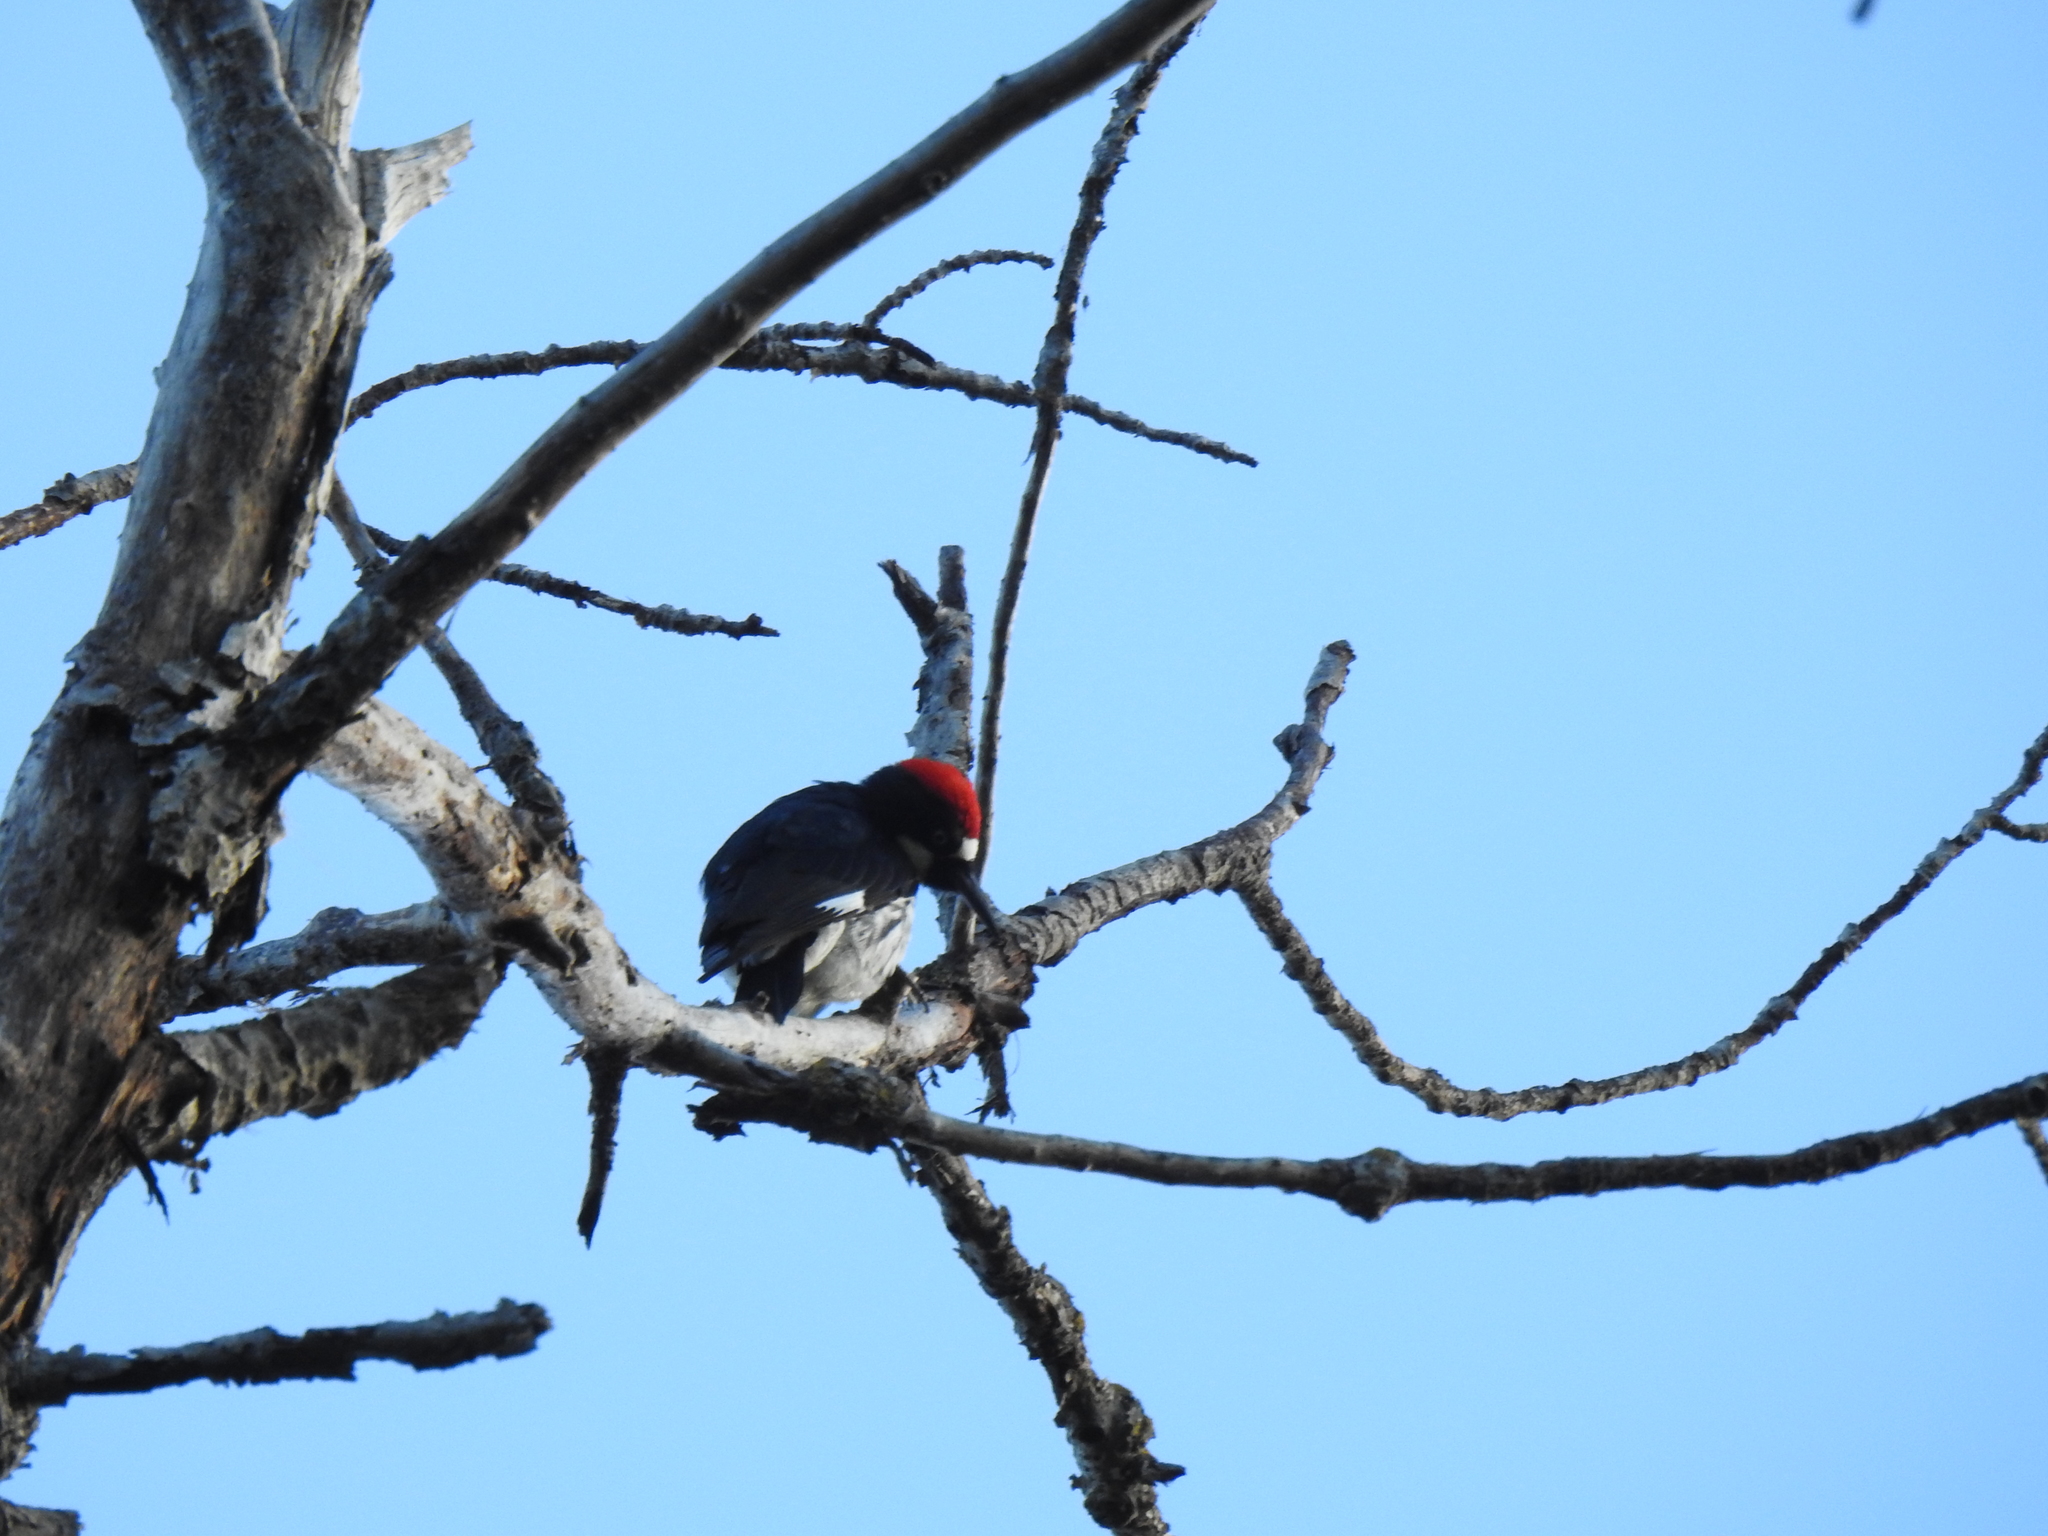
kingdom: Animalia
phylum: Chordata
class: Aves
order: Piciformes
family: Picidae
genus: Melanerpes
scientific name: Melanerpes formicivorus
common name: Acorn woodpecker
